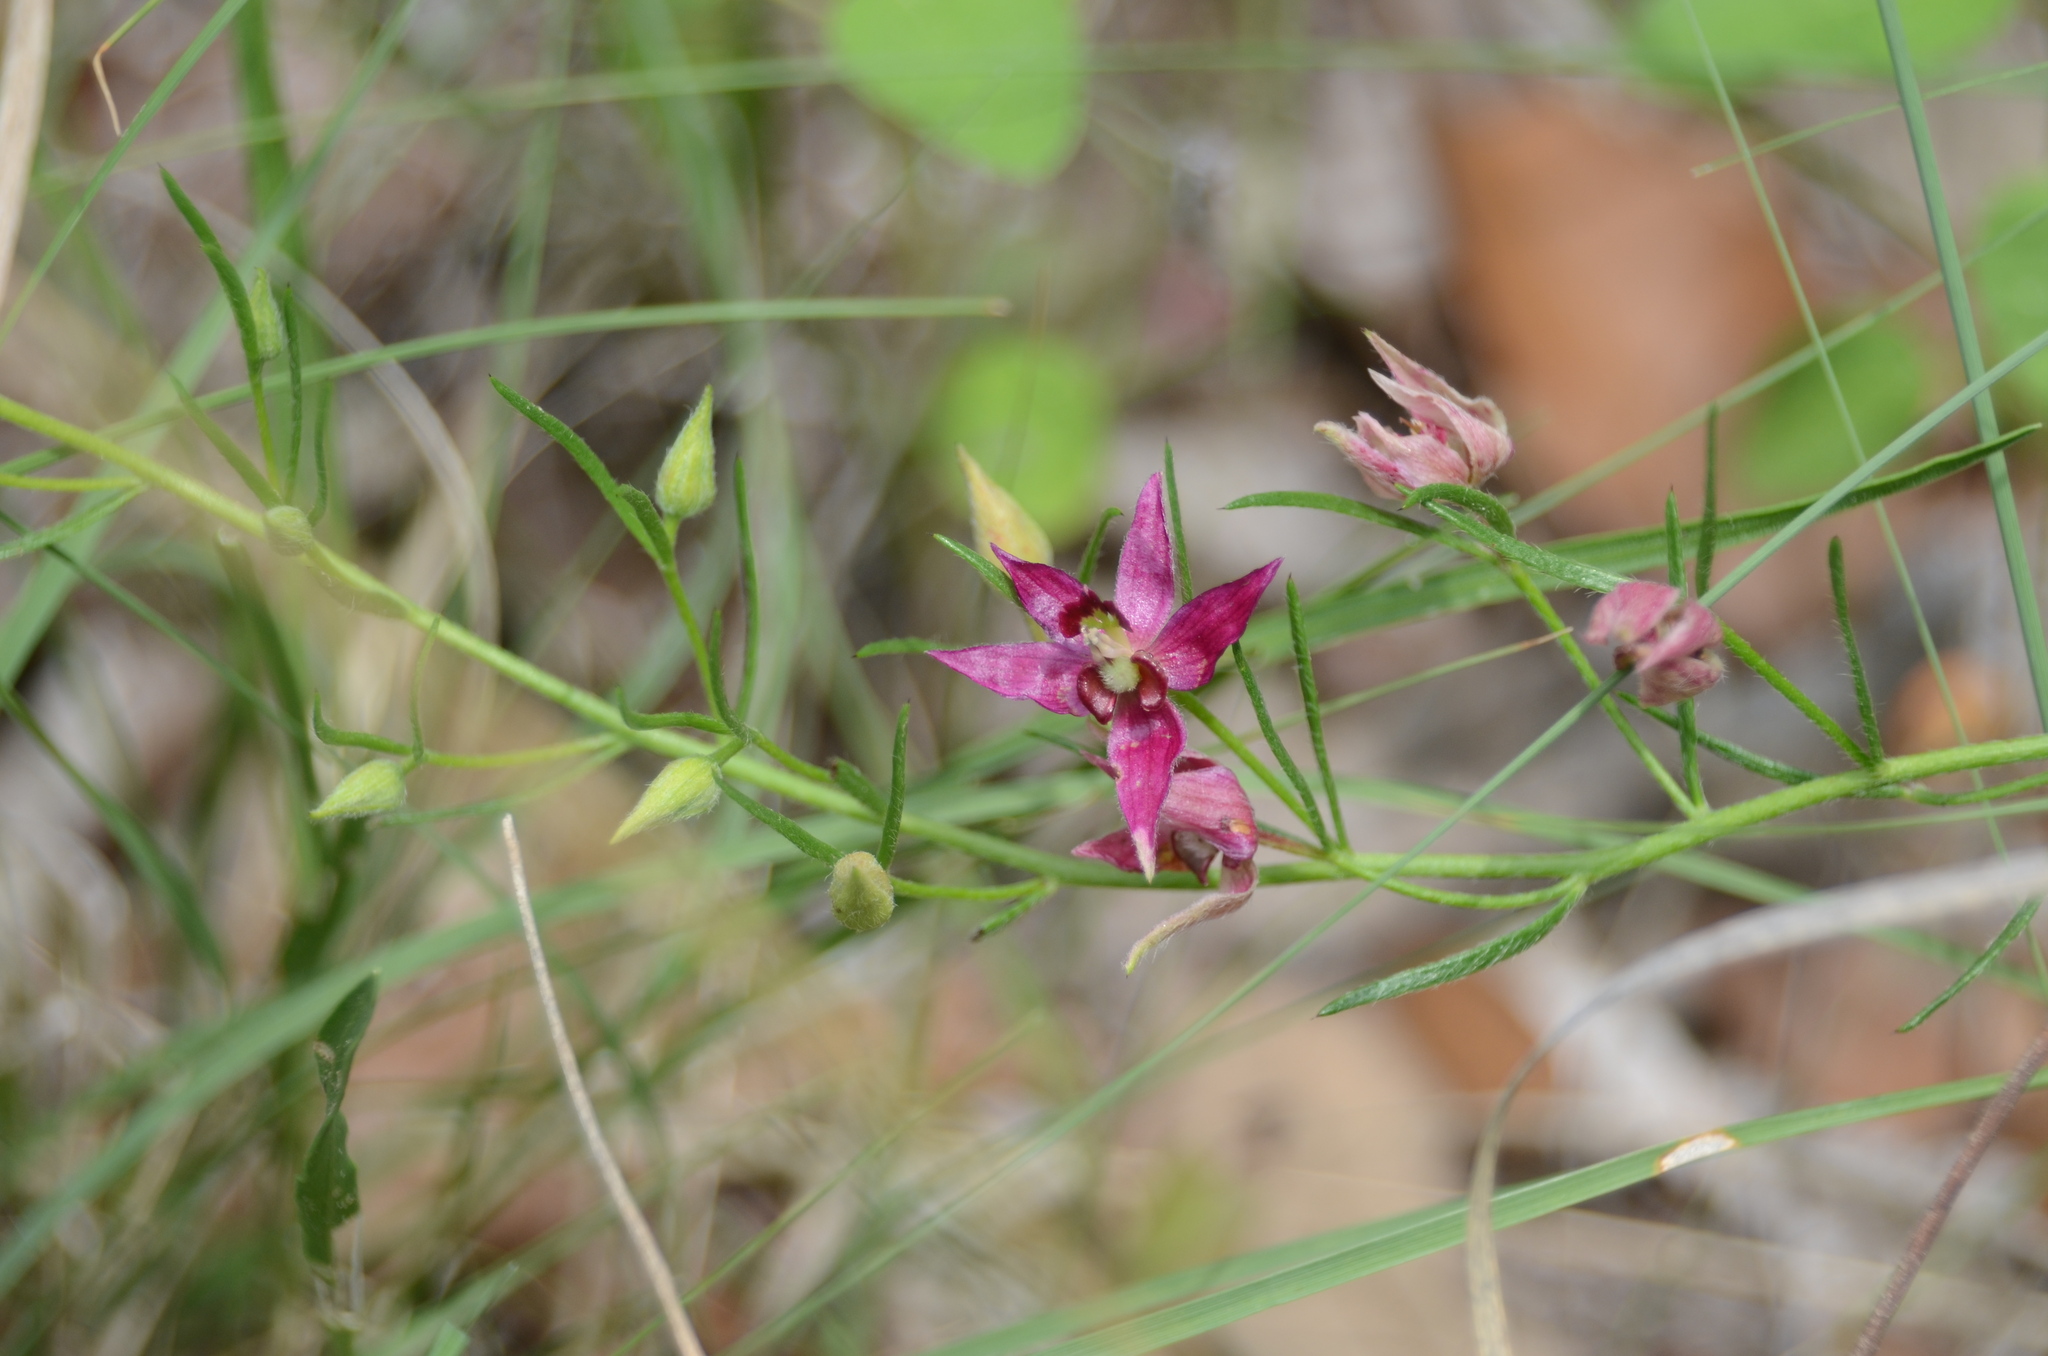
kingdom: Plantae
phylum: Tracheophyta
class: Magnoliopsida
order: Zygophyllales
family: Krameriaceae
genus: Krameria
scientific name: Krameria lanceolata
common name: Ratany
